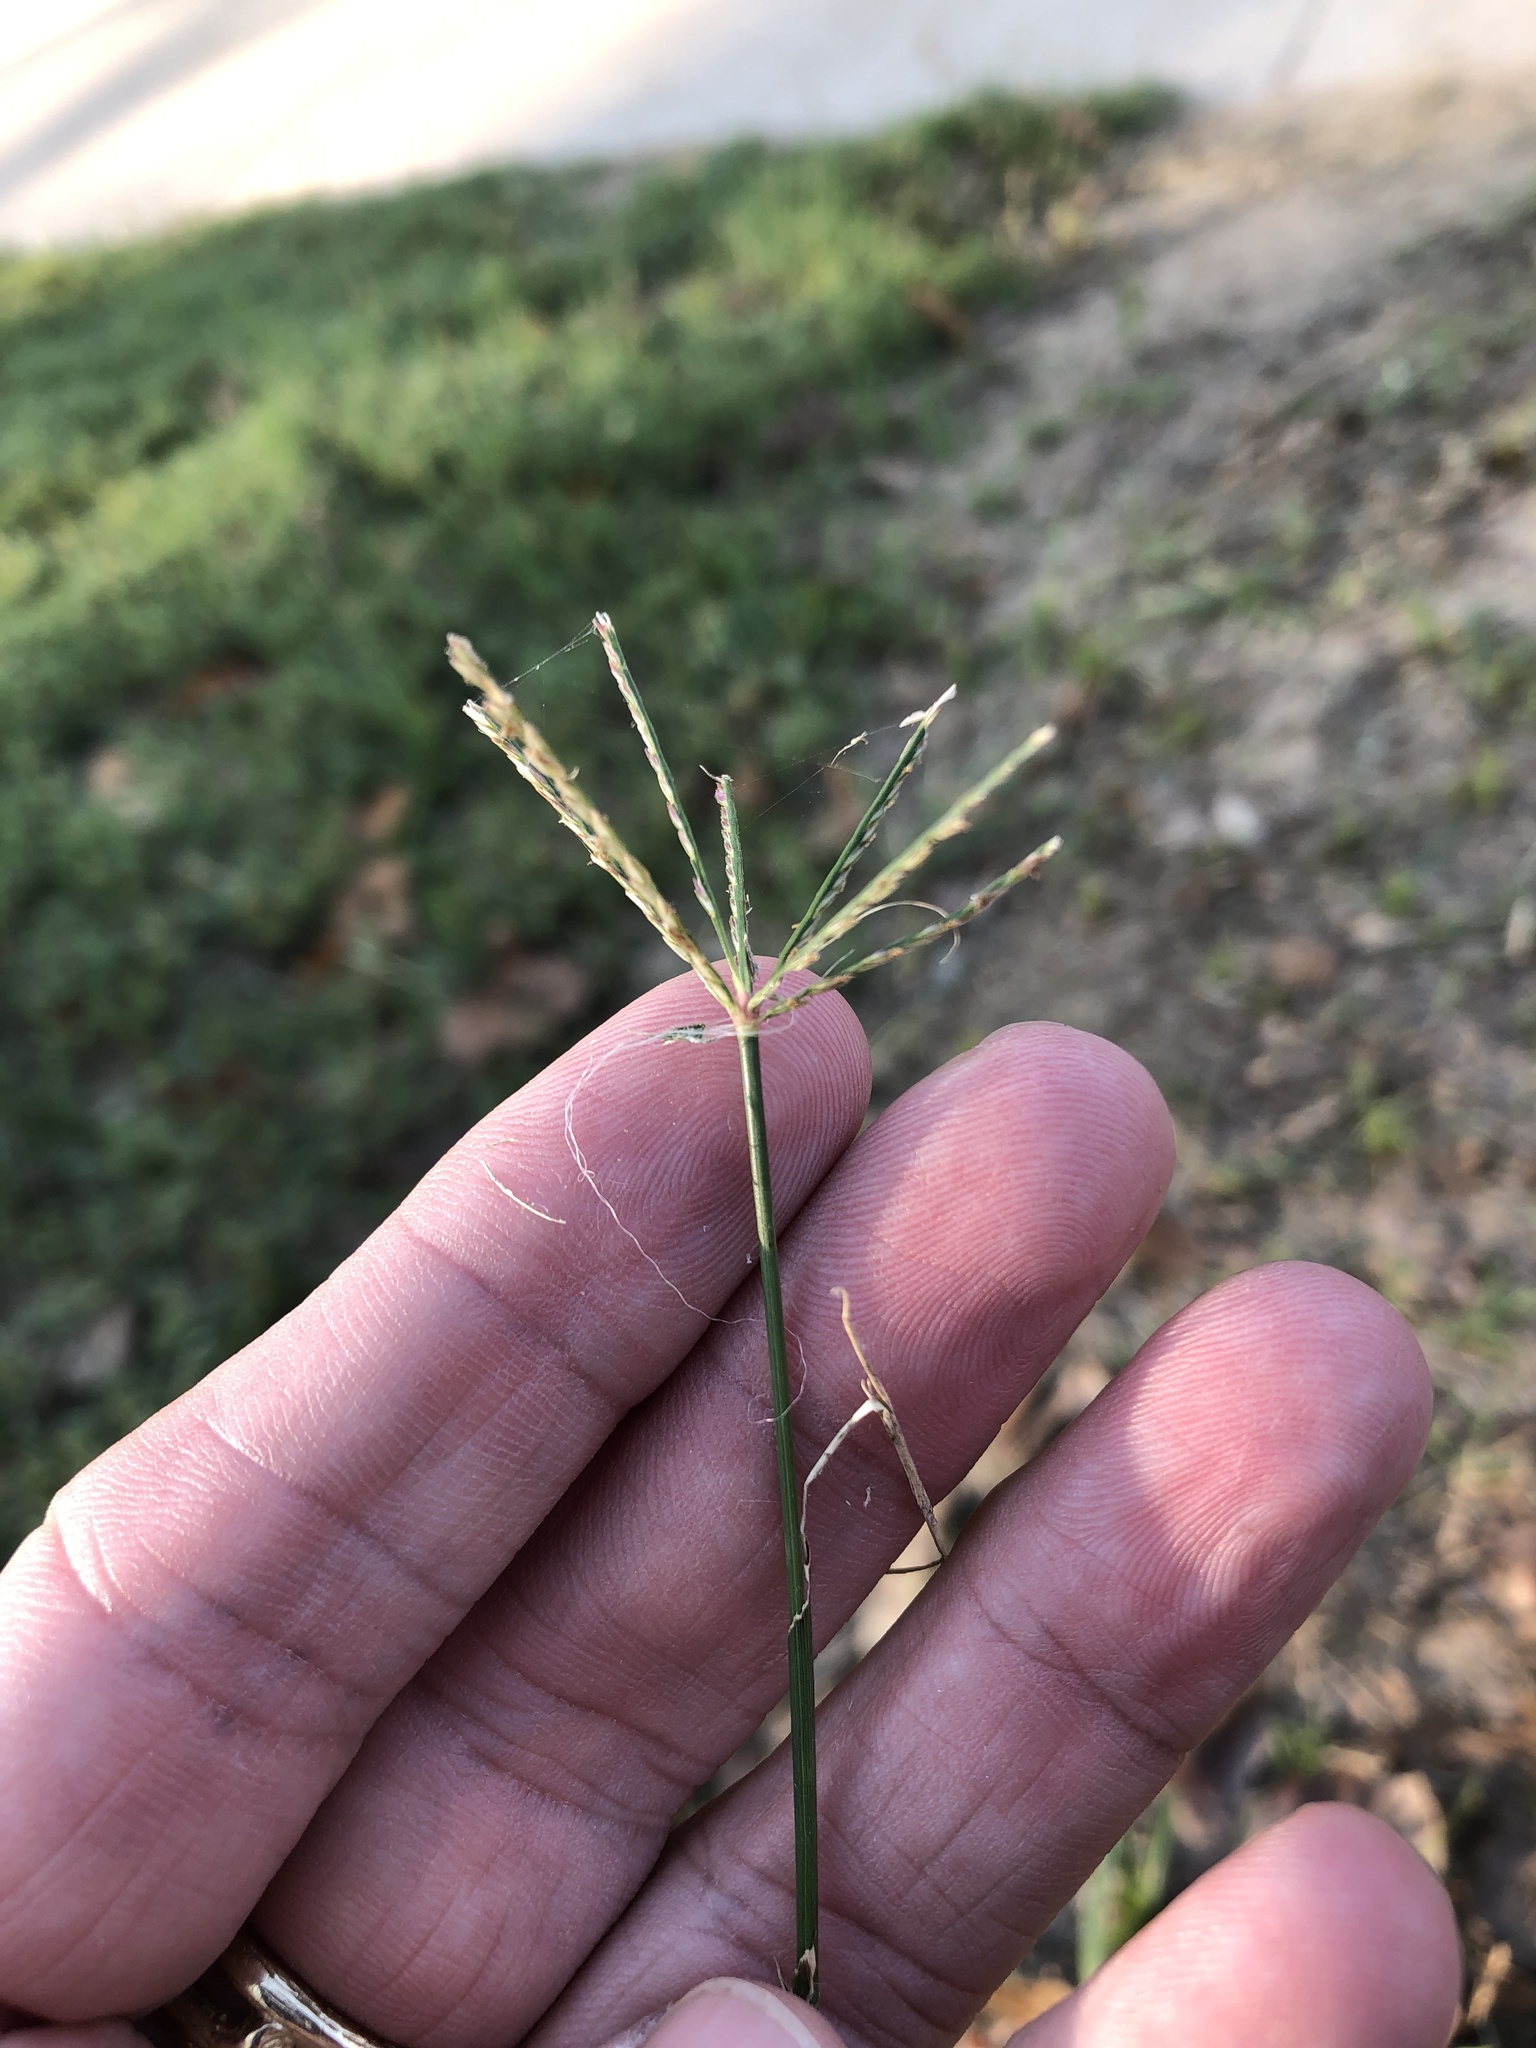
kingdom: Plantae
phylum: Tracheophyta
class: Liliopsida
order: Poales
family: Poaceae
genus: Cynodon
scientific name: Cynodon dactylon
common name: Bermuda grass
